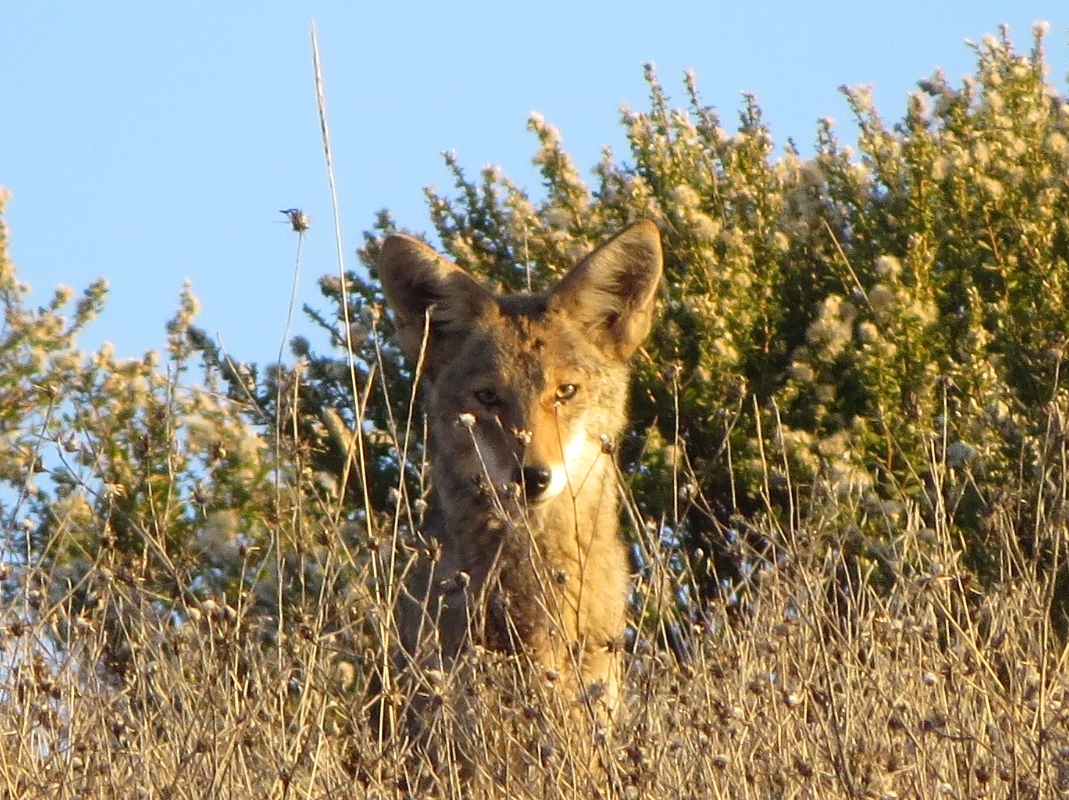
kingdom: Animalia
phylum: Chordata
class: Mammalia
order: Carnivora
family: Canidae
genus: Canis
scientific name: Canis latrans
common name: Coyote
